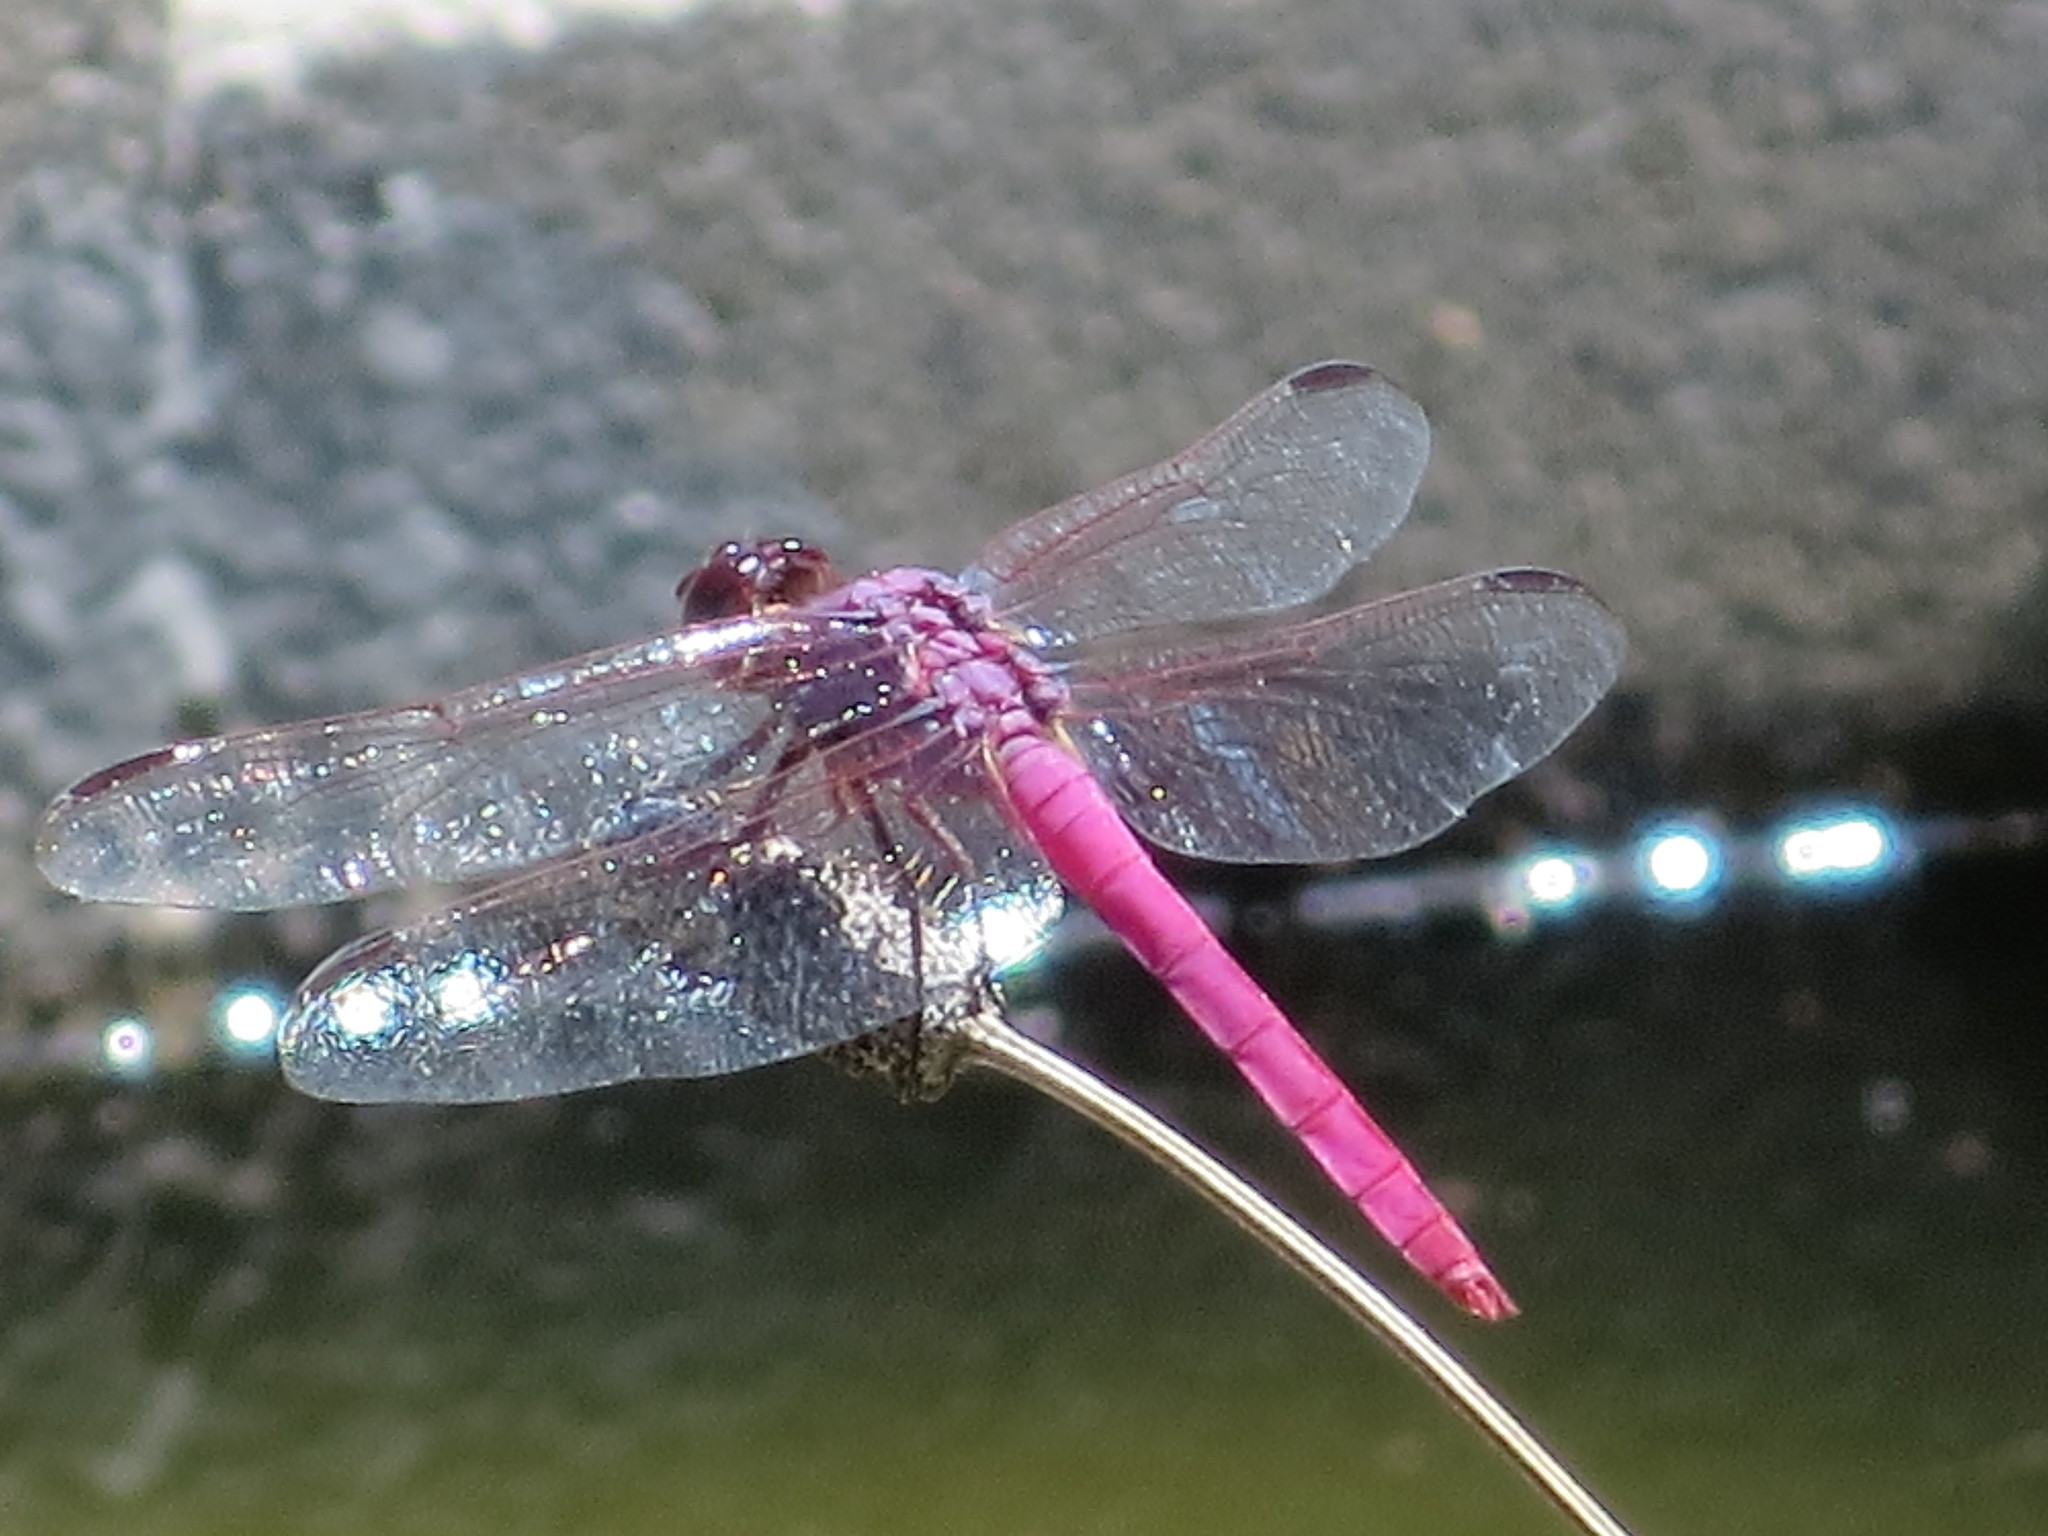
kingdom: Animalia
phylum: Arthropoda
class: Insecta
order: Odonata
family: Libellulidae
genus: Orthemis
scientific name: Orthemis ferruginea
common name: Roseate skimmer
